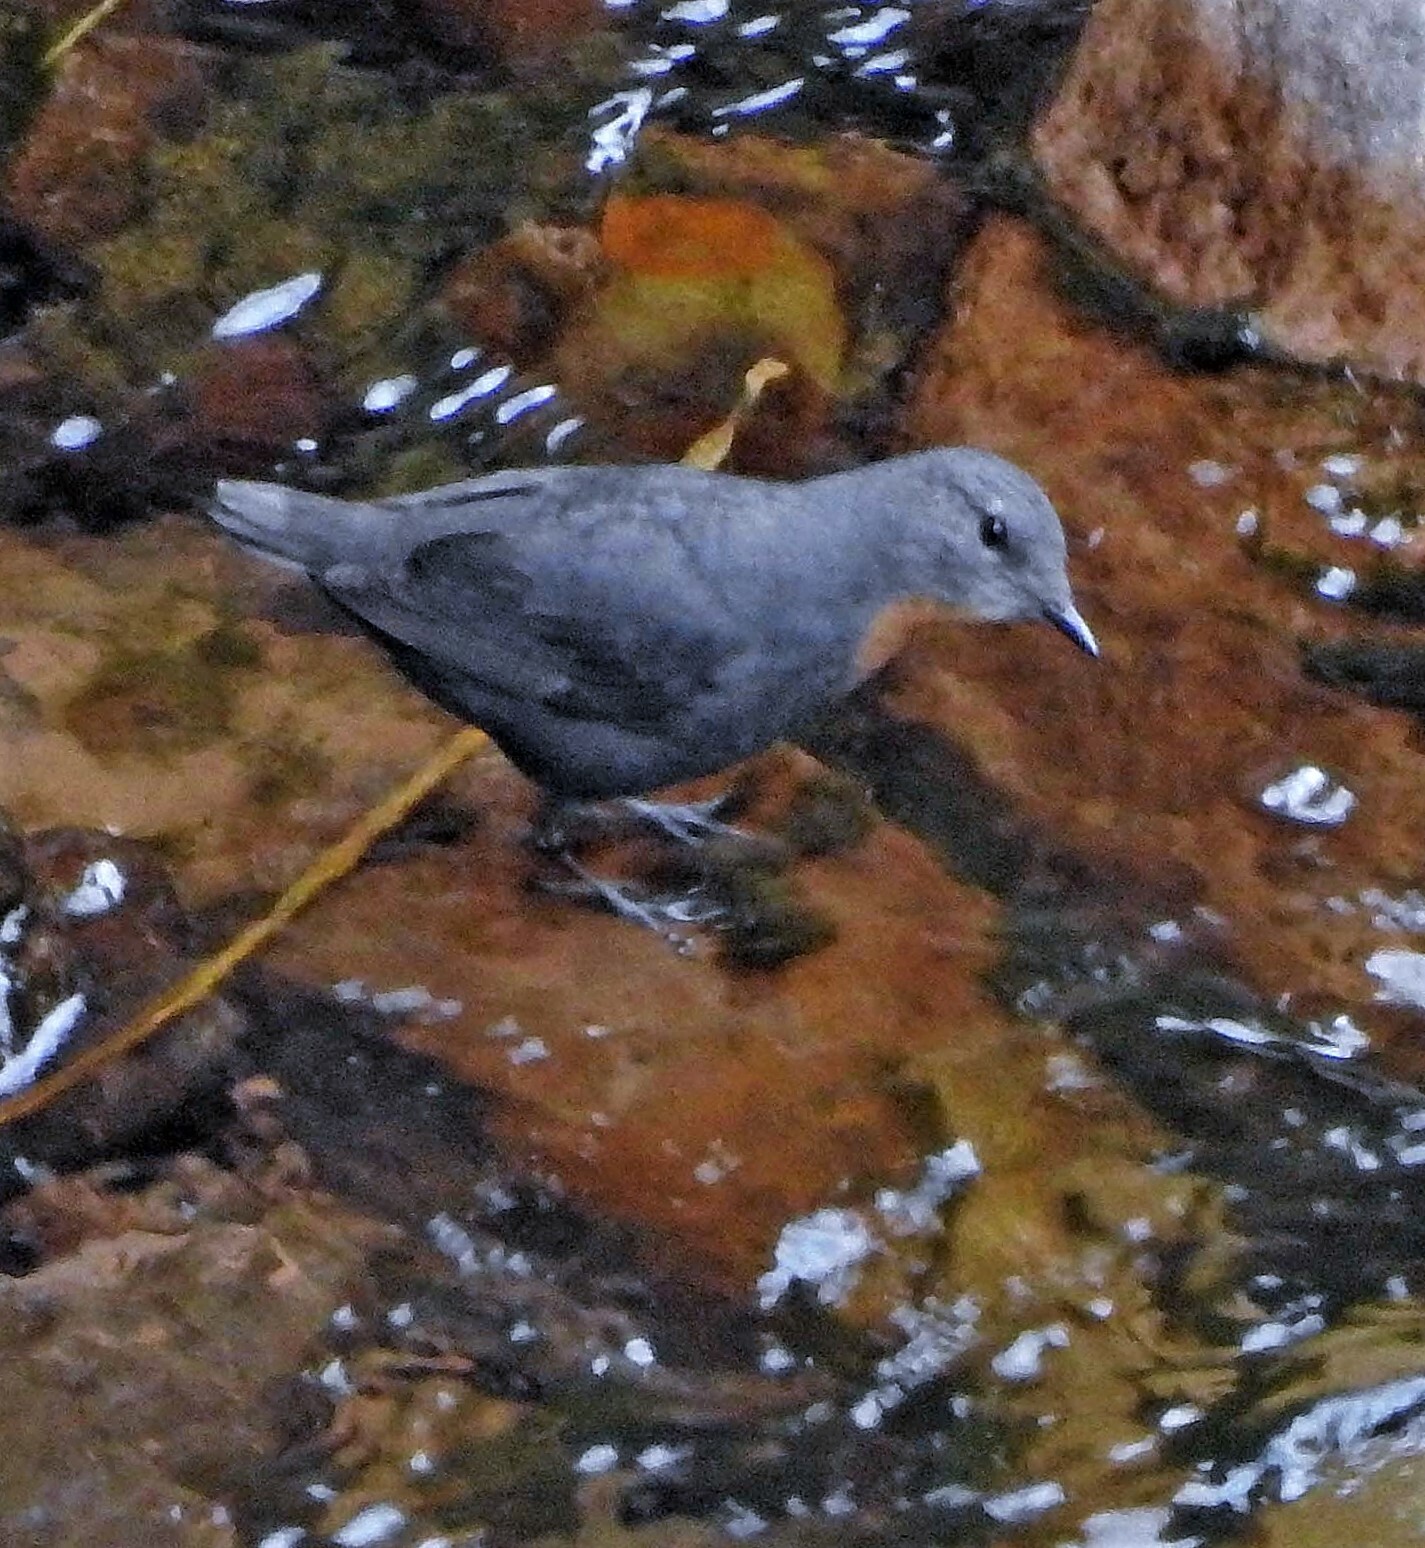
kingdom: Animalia
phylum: Chordata
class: Aves
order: Passeriformes
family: Cinclidae
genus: Cinclus
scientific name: Cinclus schulzii
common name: Rufous-throated dipper
